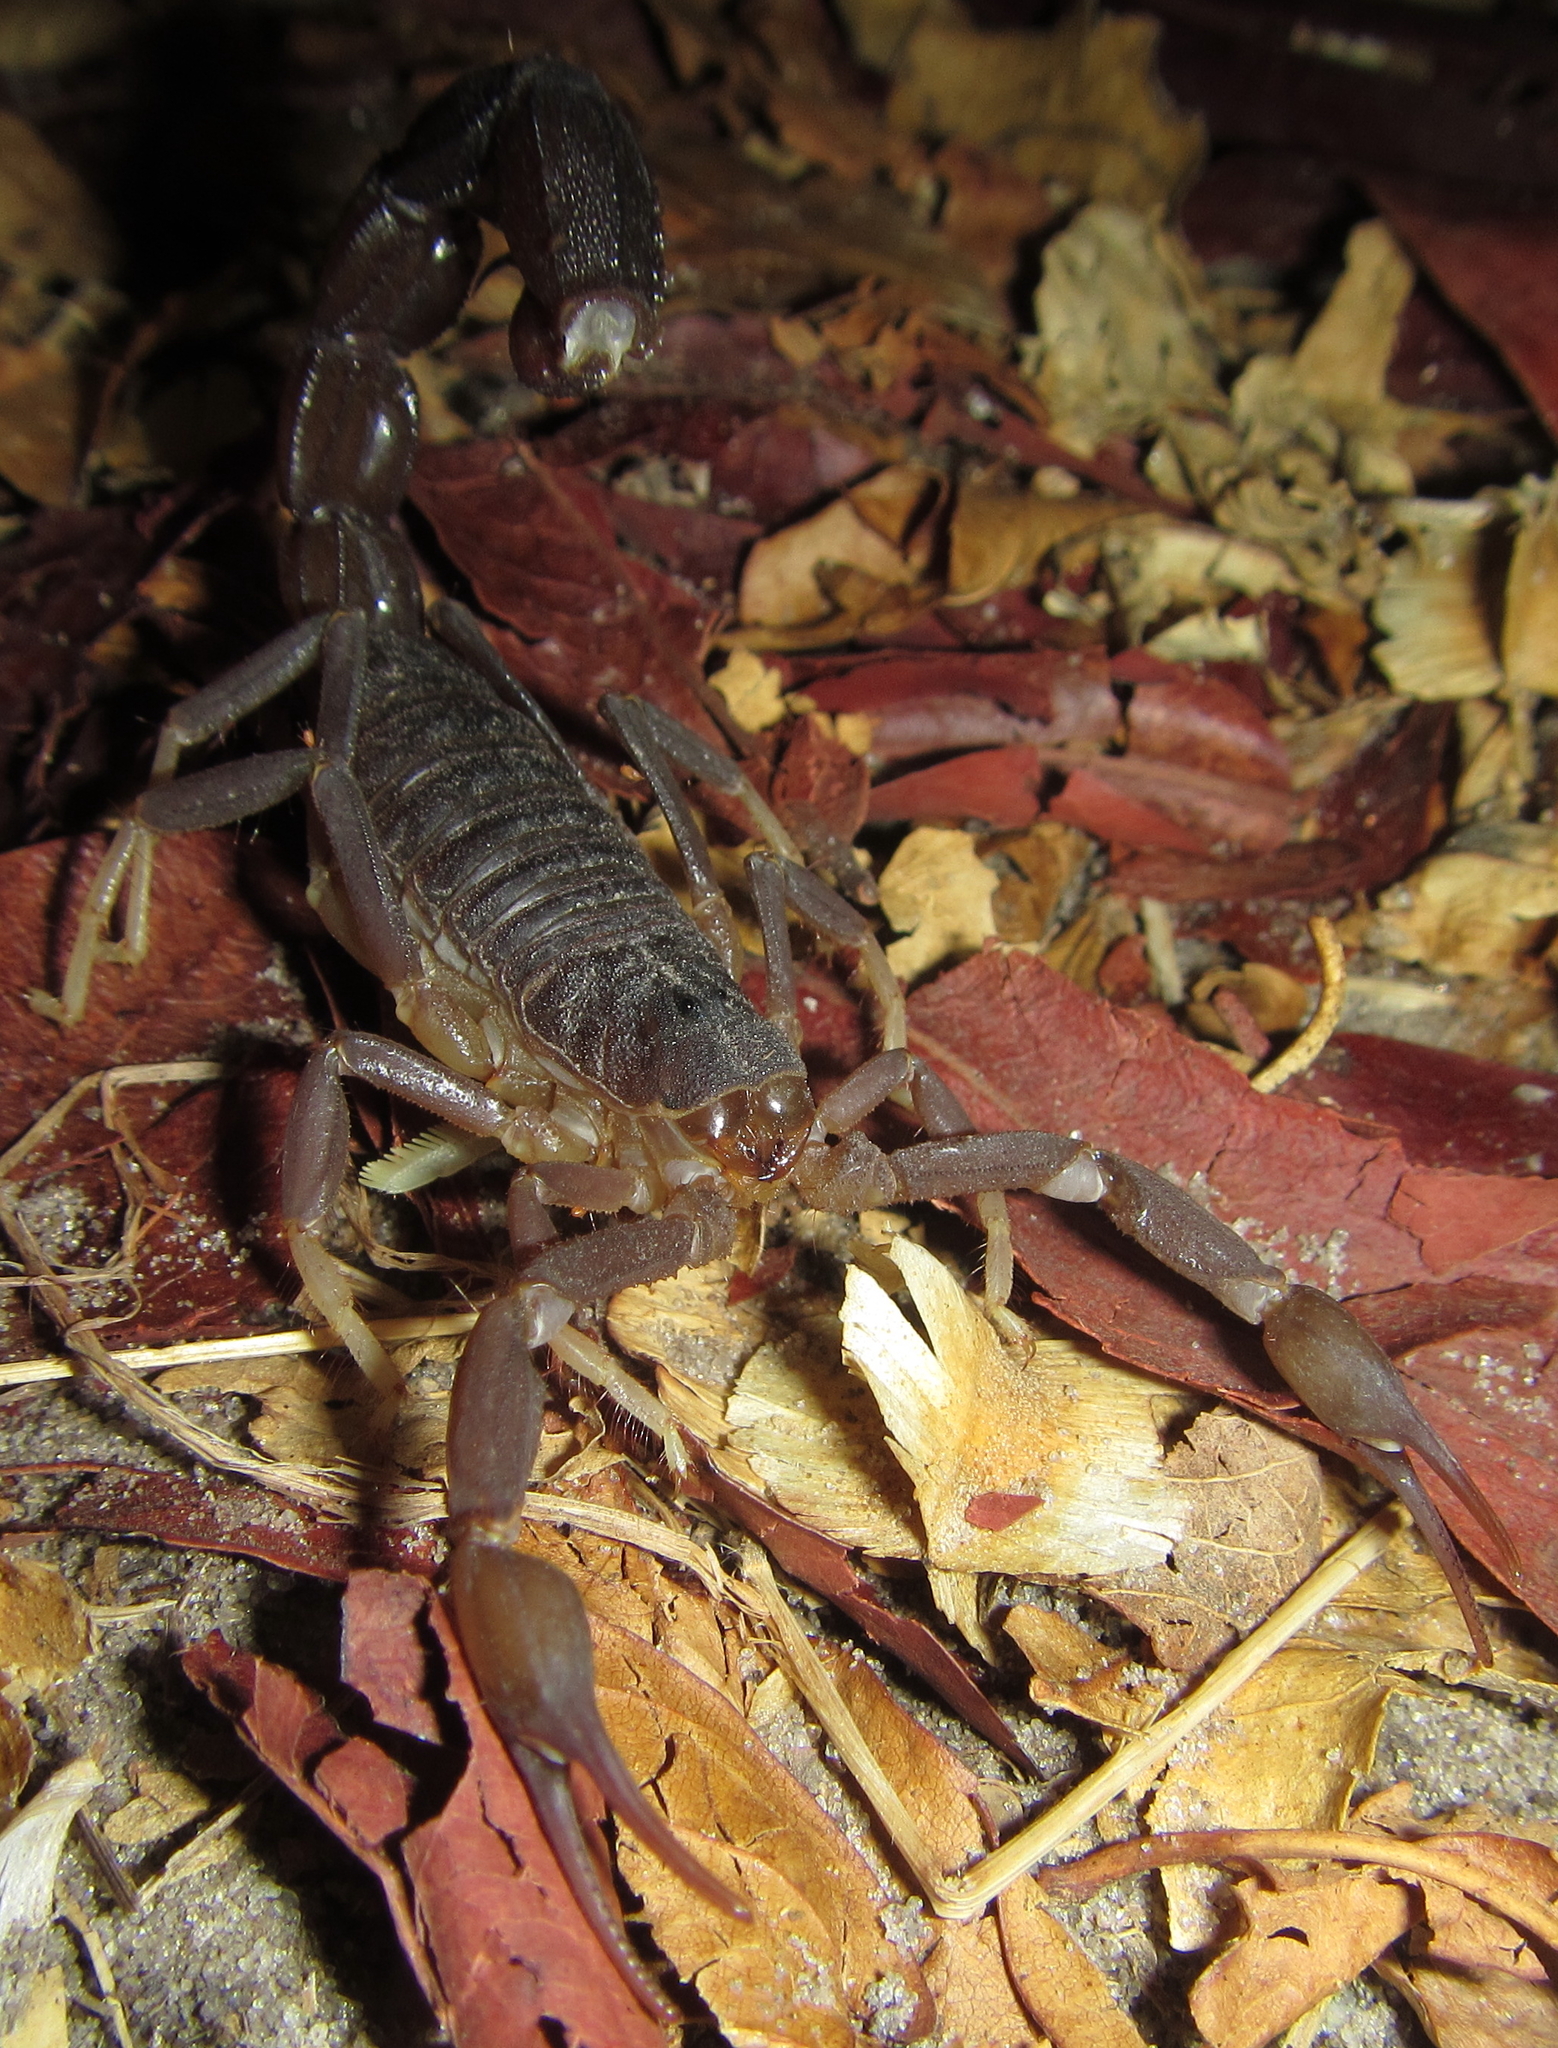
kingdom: Animalia
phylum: Arthropoda
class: Arachnida
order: Scorpiones
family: Buthidae
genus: Parabuthus
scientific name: Parabuthus granulatus
